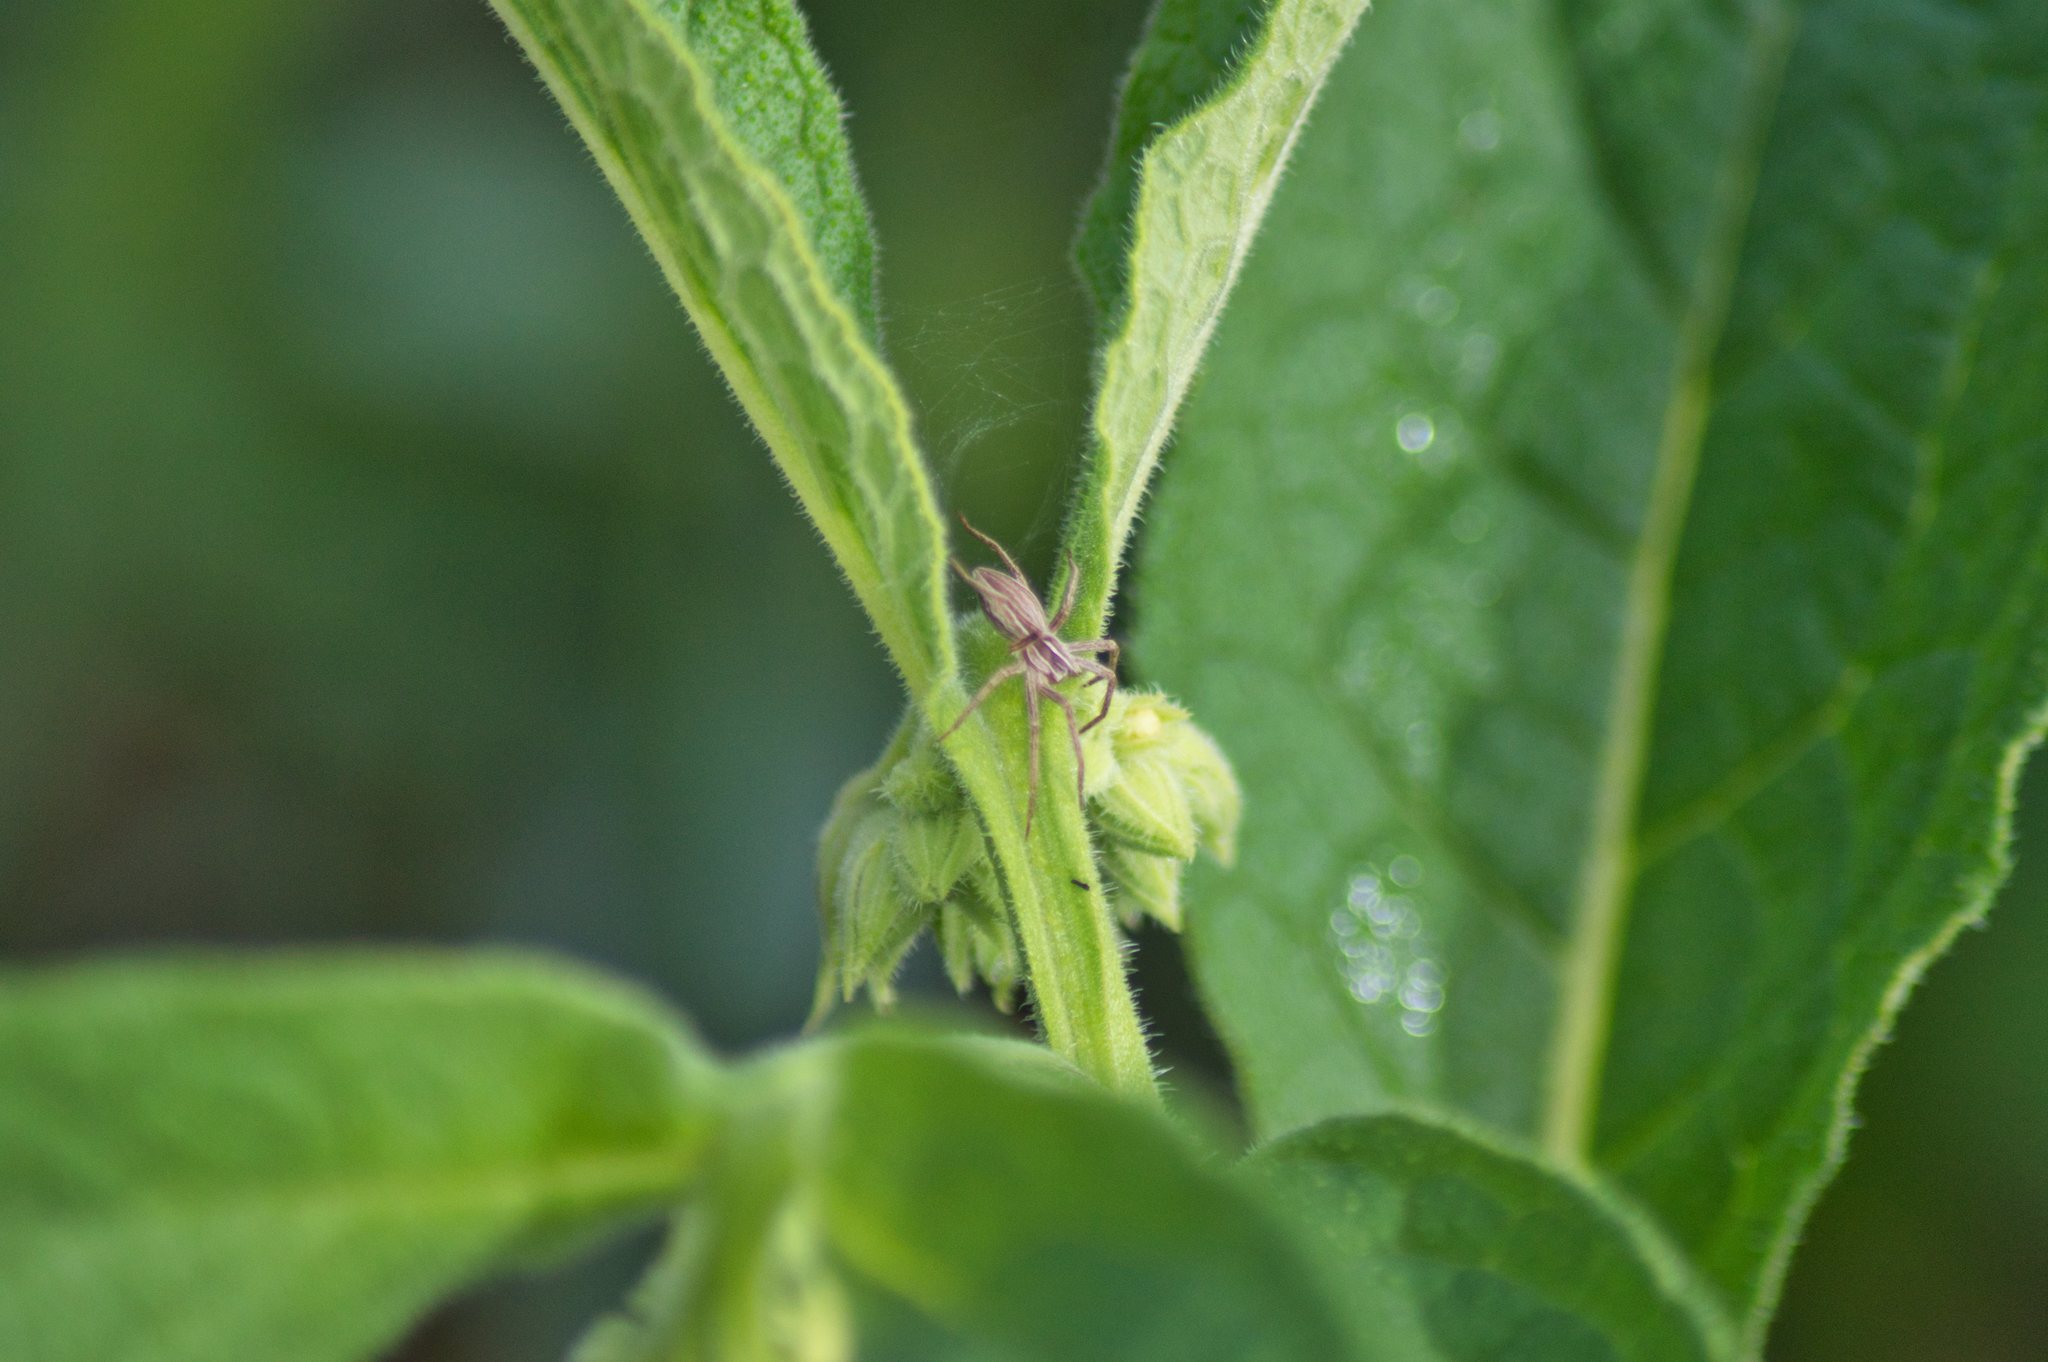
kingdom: Animalia
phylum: Arthropoda
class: Arachnida
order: Araneae
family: Pisauridae
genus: Pisaura
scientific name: Pisaura mirabilis
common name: Tent spider
